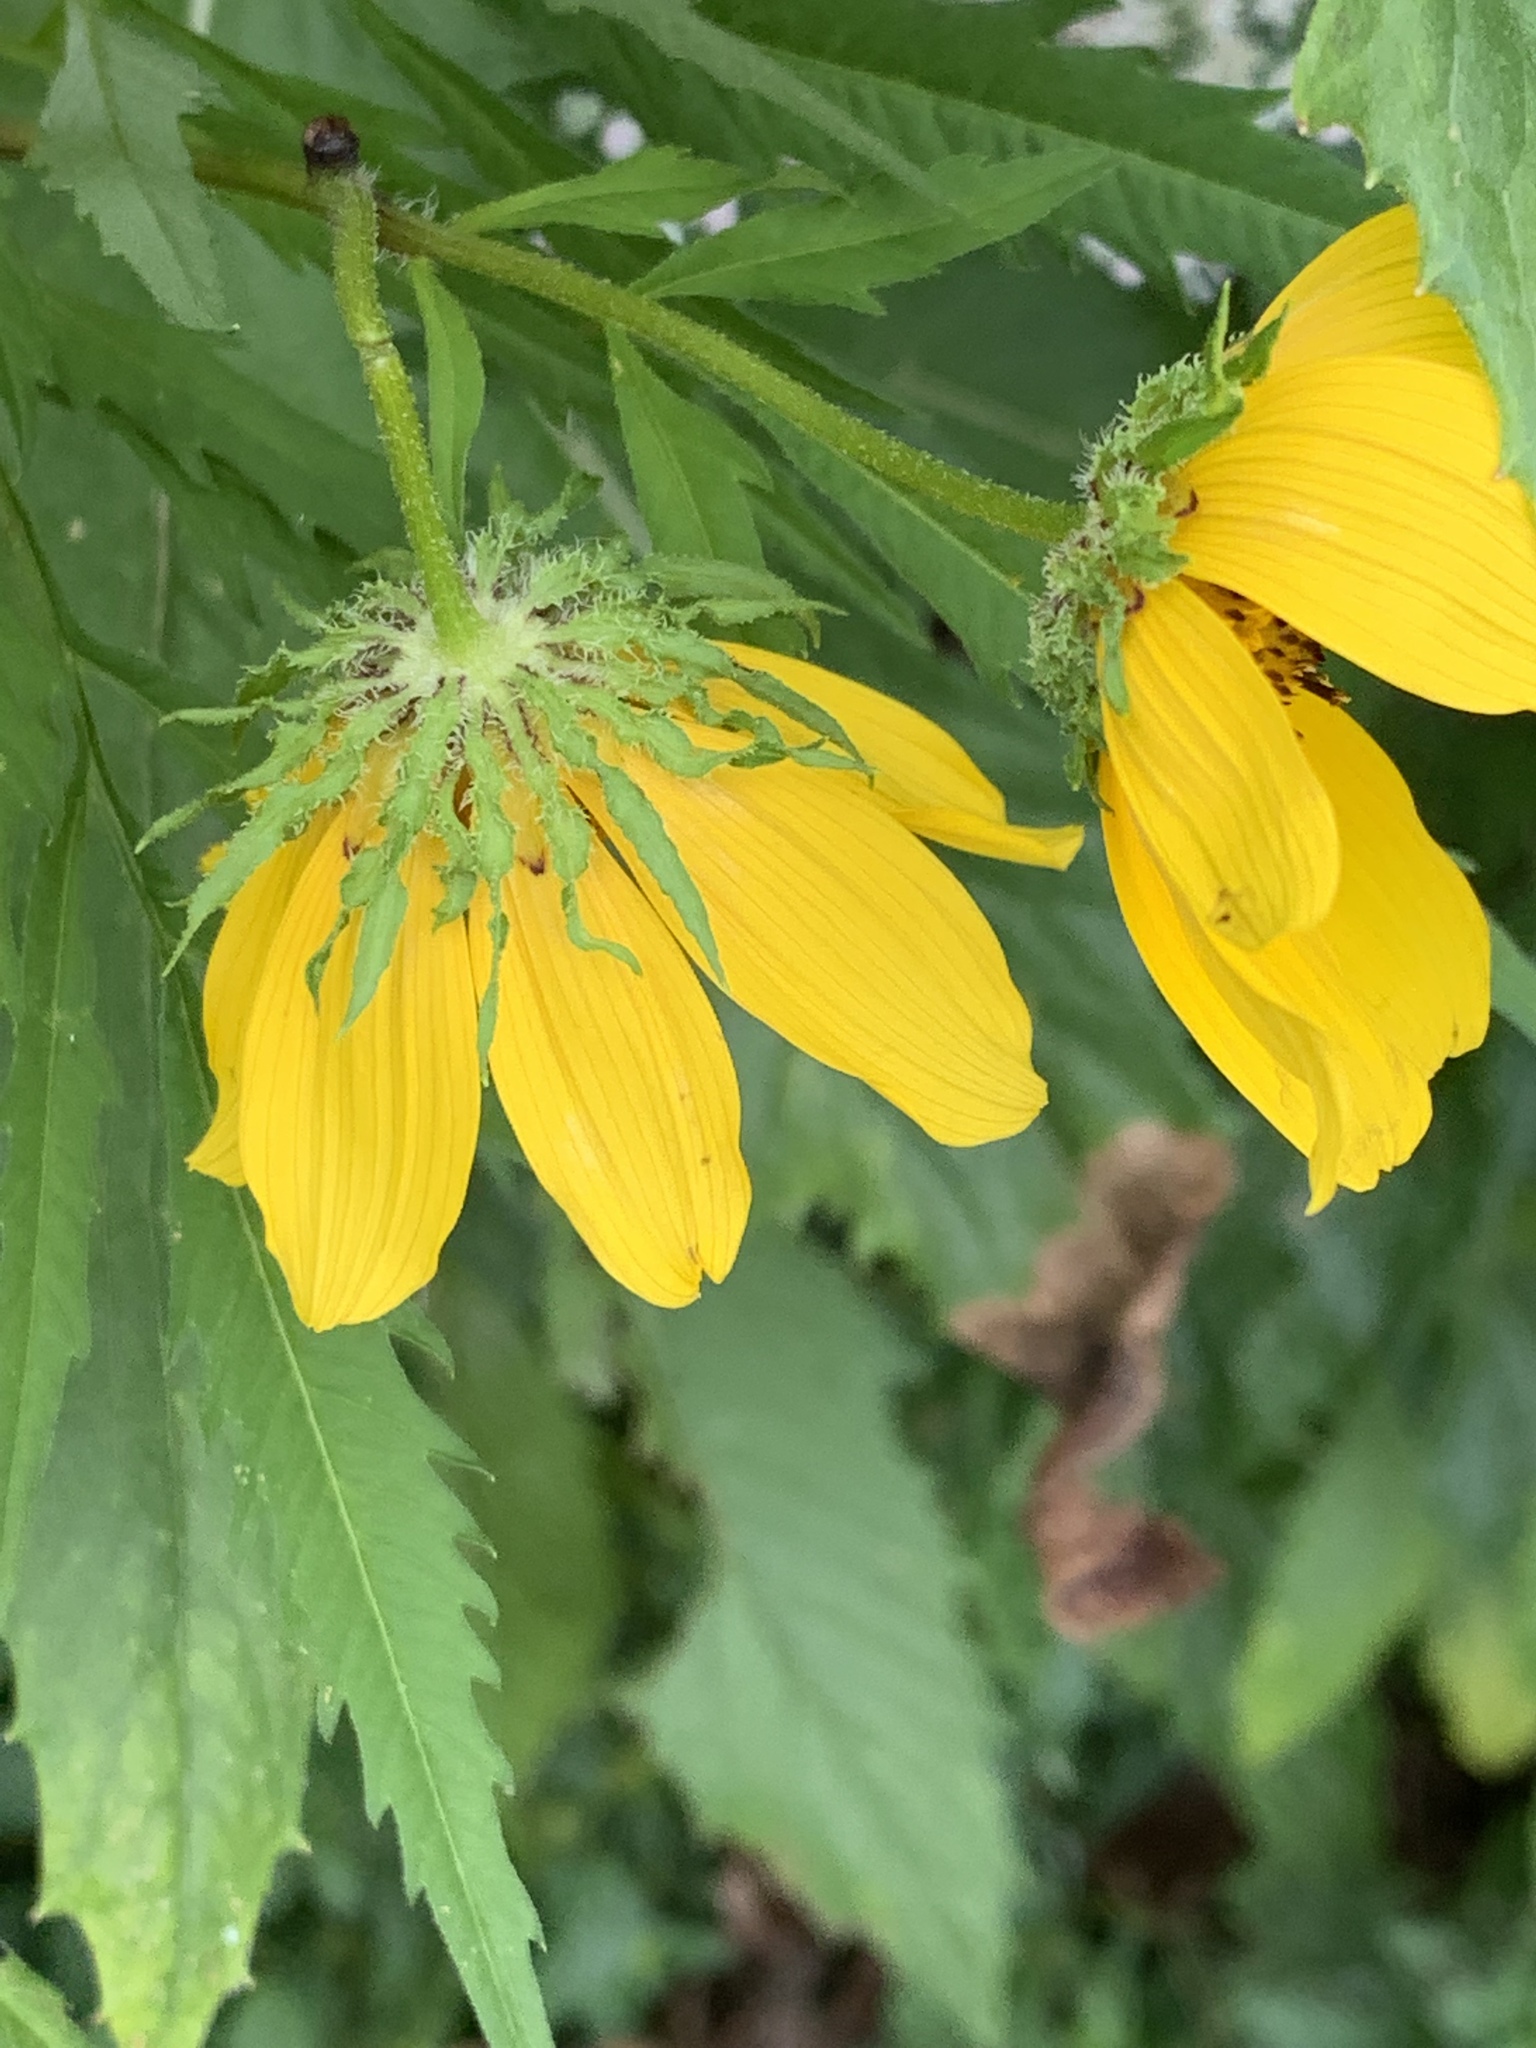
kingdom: Plantae
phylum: Tracheophyta
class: Magnoliopsida
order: Asterales
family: Asteraceae
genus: Bidens
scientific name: Bidens polylepis
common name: Awnless beggarticks
